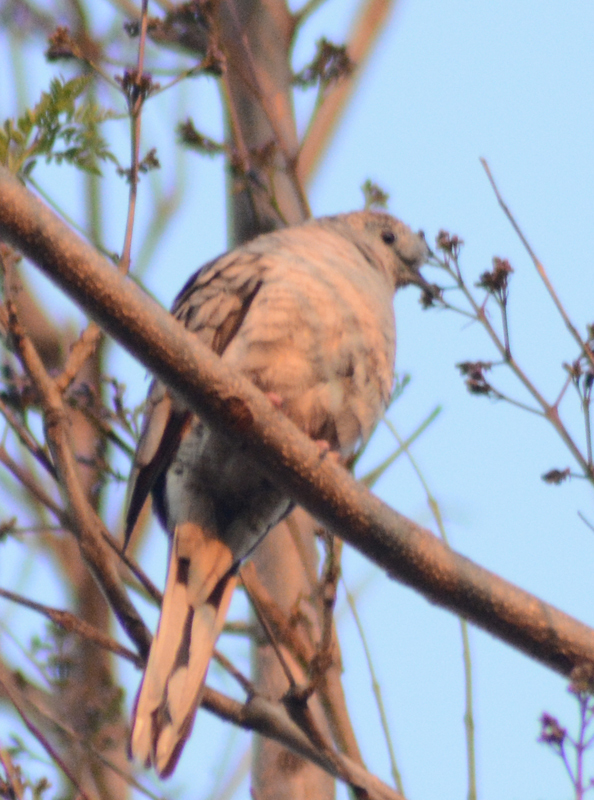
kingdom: Animalia
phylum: Chordata
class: Aves
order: Columbiformes
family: Columbidae
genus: Columbina
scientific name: Columbina inca
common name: Inca dove
